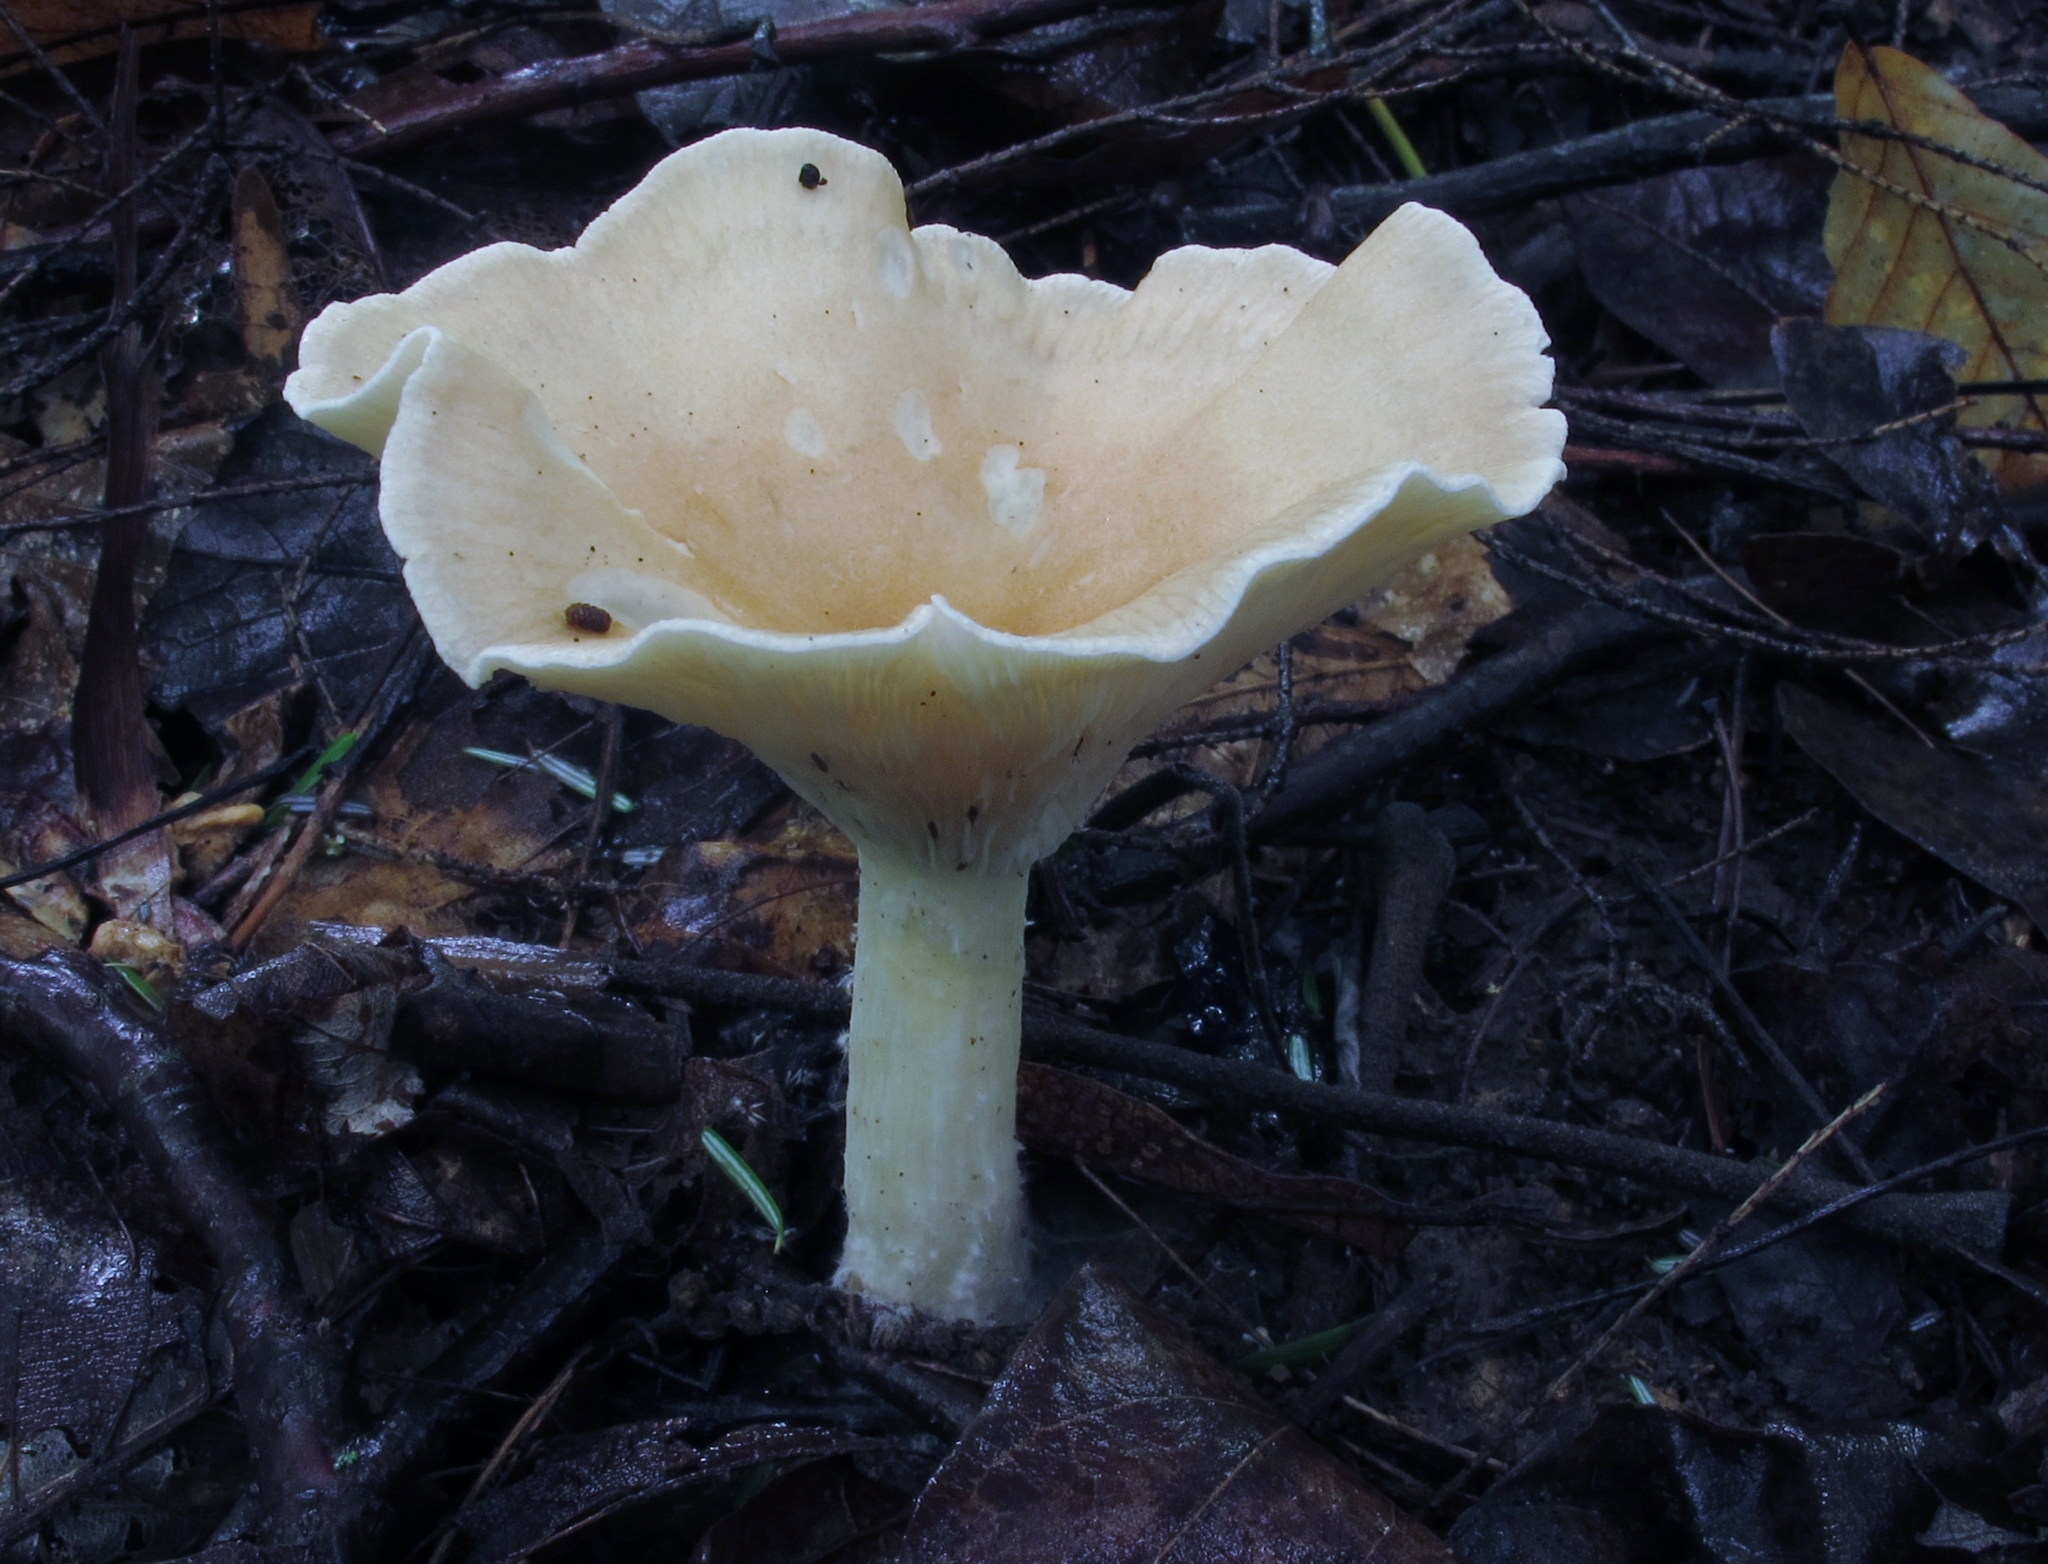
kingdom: Fungi
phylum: Basidiomycota
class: Agaricomycetes
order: Agaricales
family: Tricholomataceae
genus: Infundibulicybe
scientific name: Infundibulicybe gibba
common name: Common funnel
